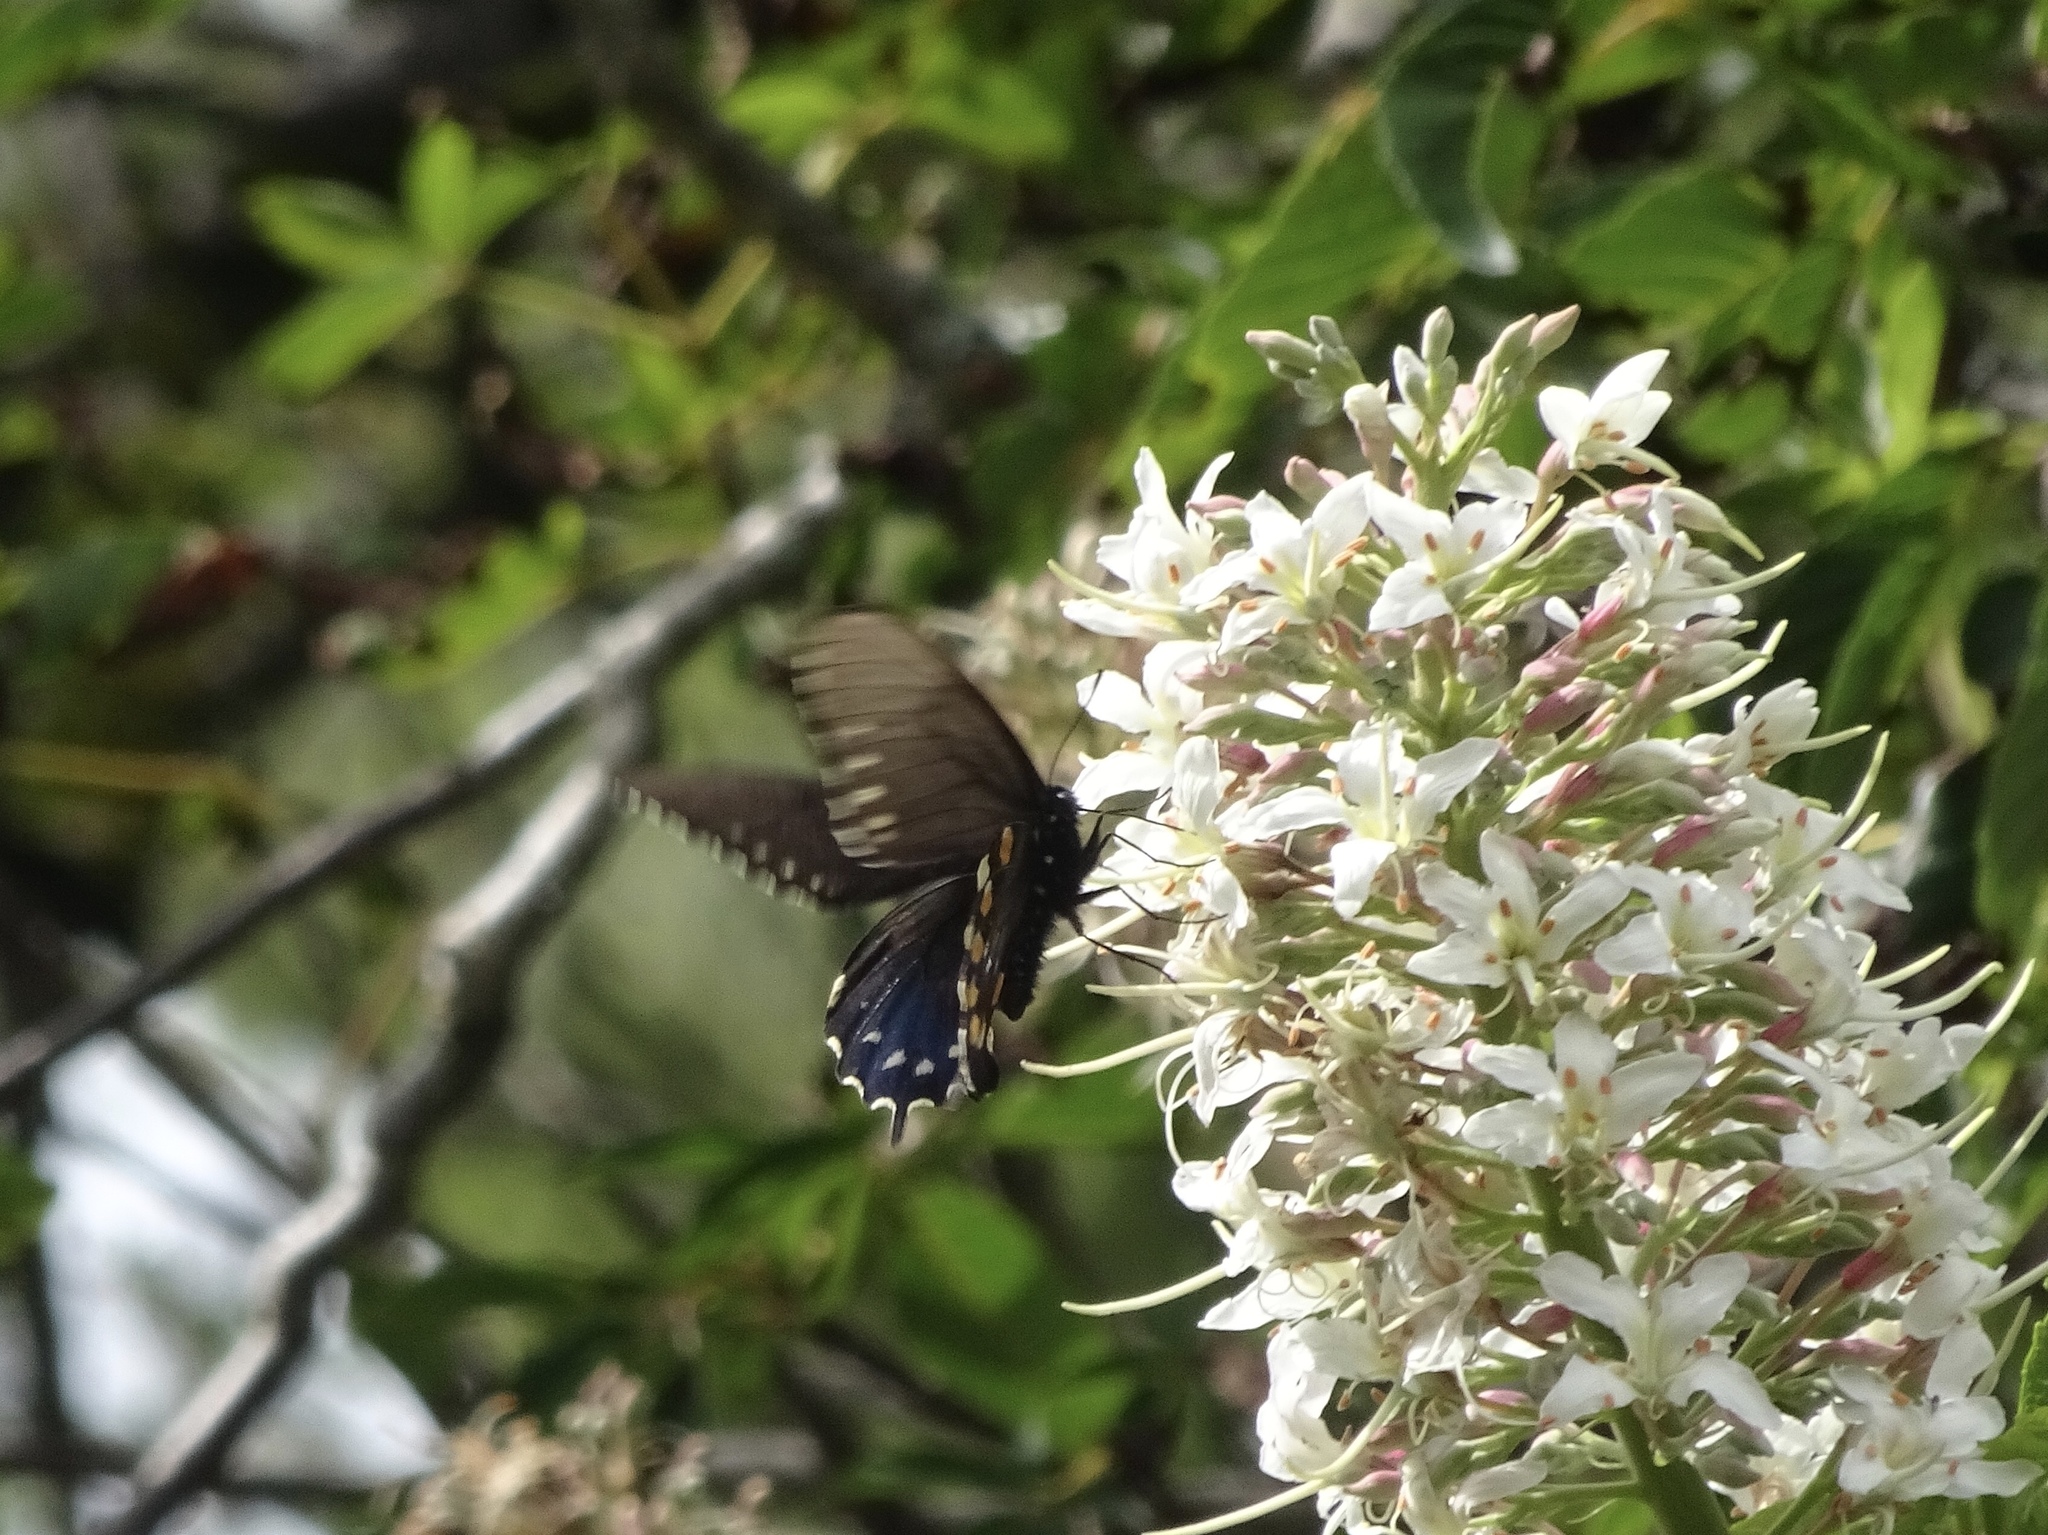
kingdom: Animalia
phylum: Arthropoda
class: Insecta
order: Lepidoptera
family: Papilionidae
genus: Battus
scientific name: Battus philenor
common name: Pipevine swallowtail
